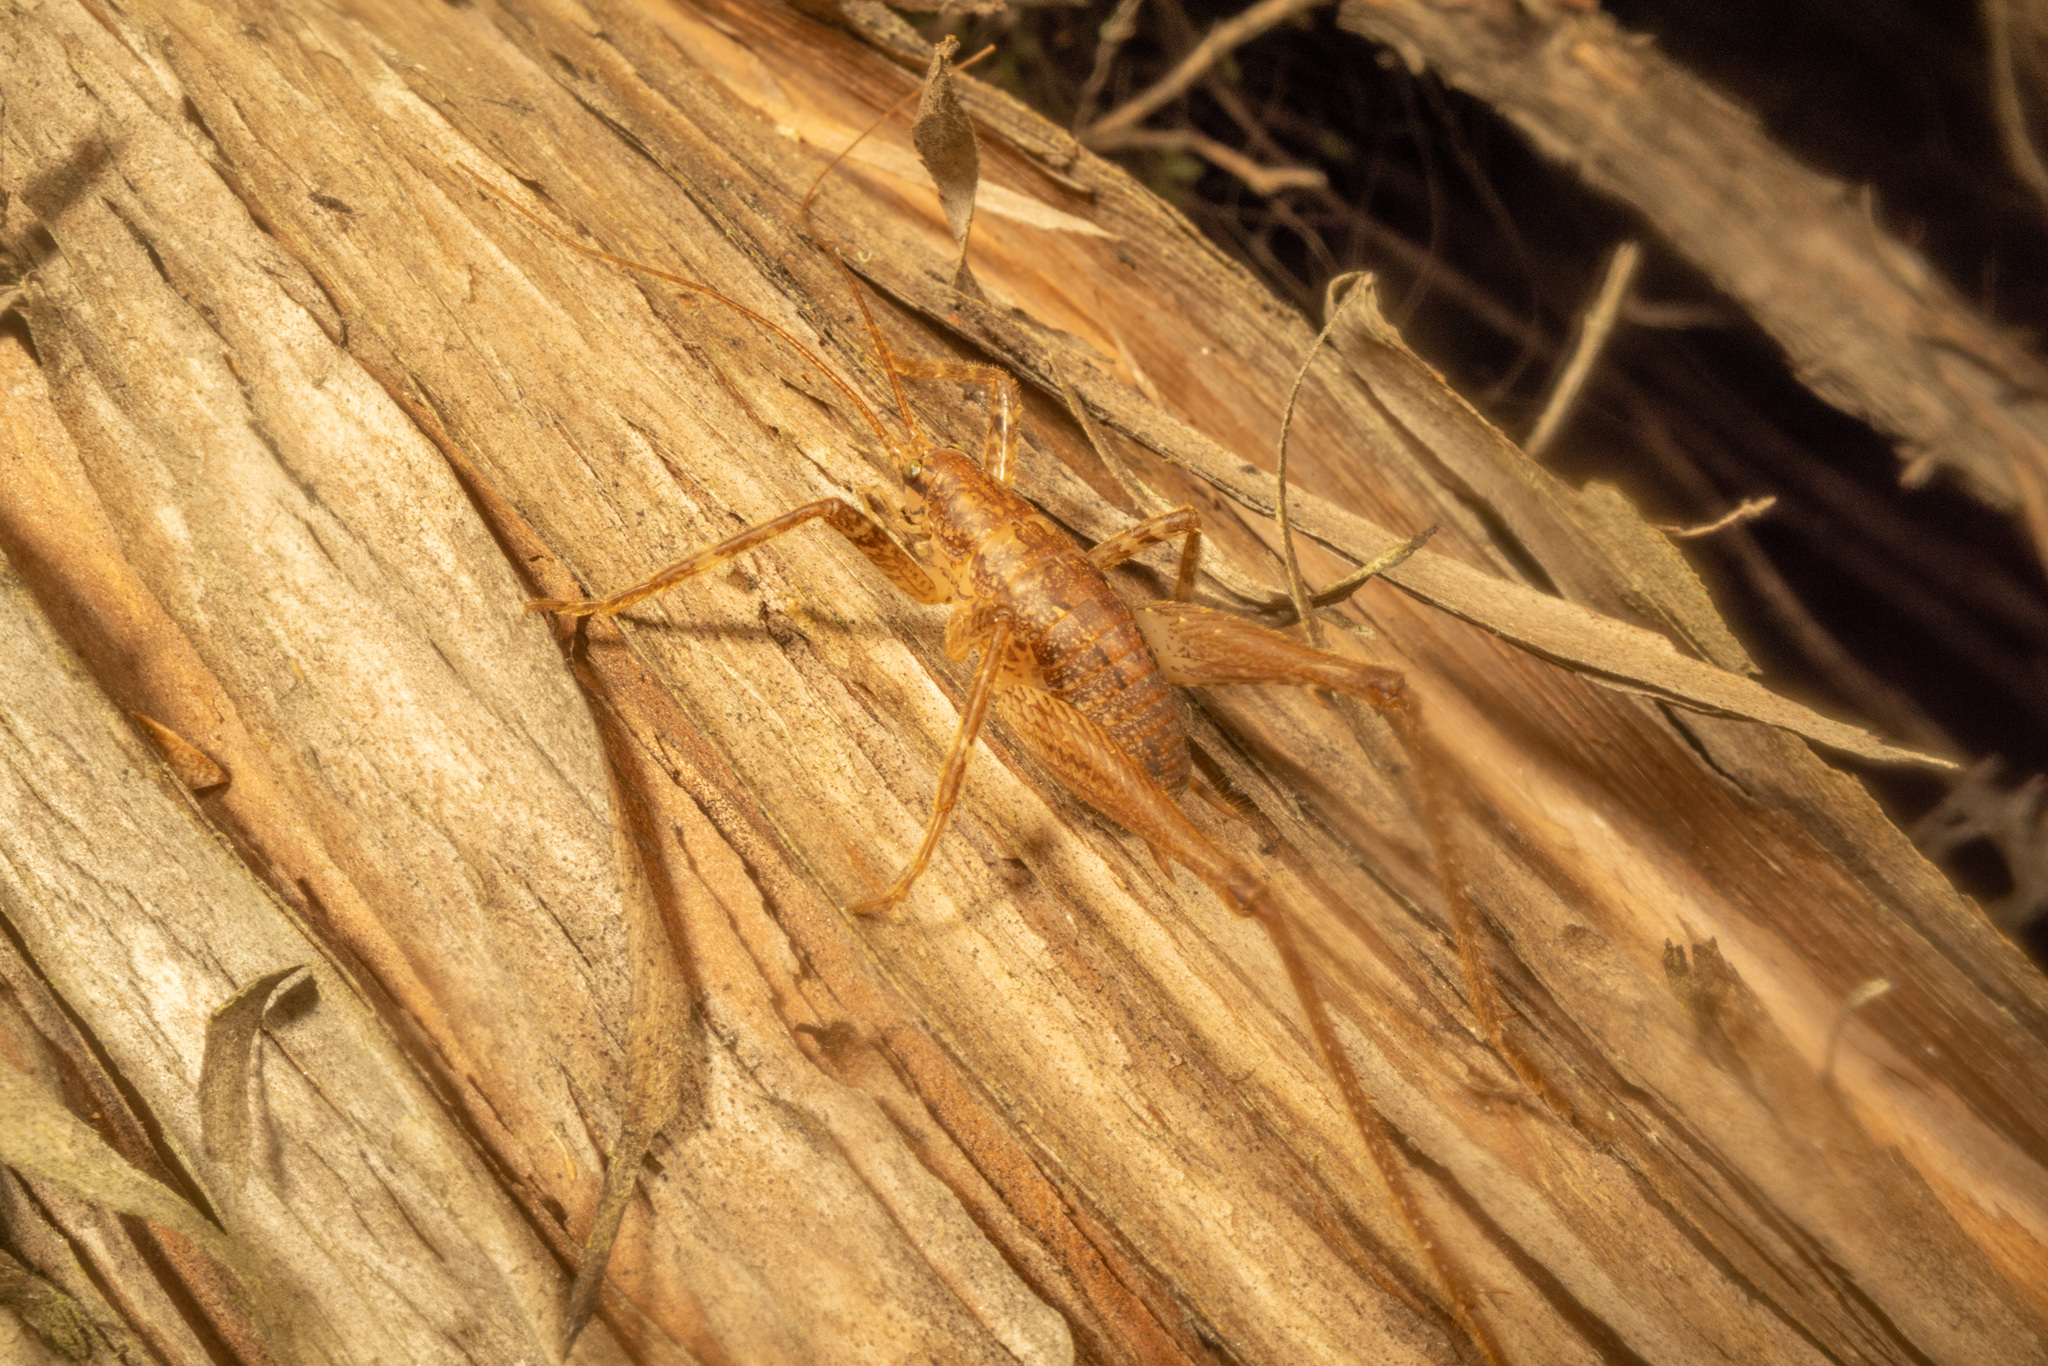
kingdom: Animalia
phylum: Arthropoda
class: Insecta
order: Orthoptera
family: Rhaphidophoridae
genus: Isoplectron
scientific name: Isoplectron armatum
